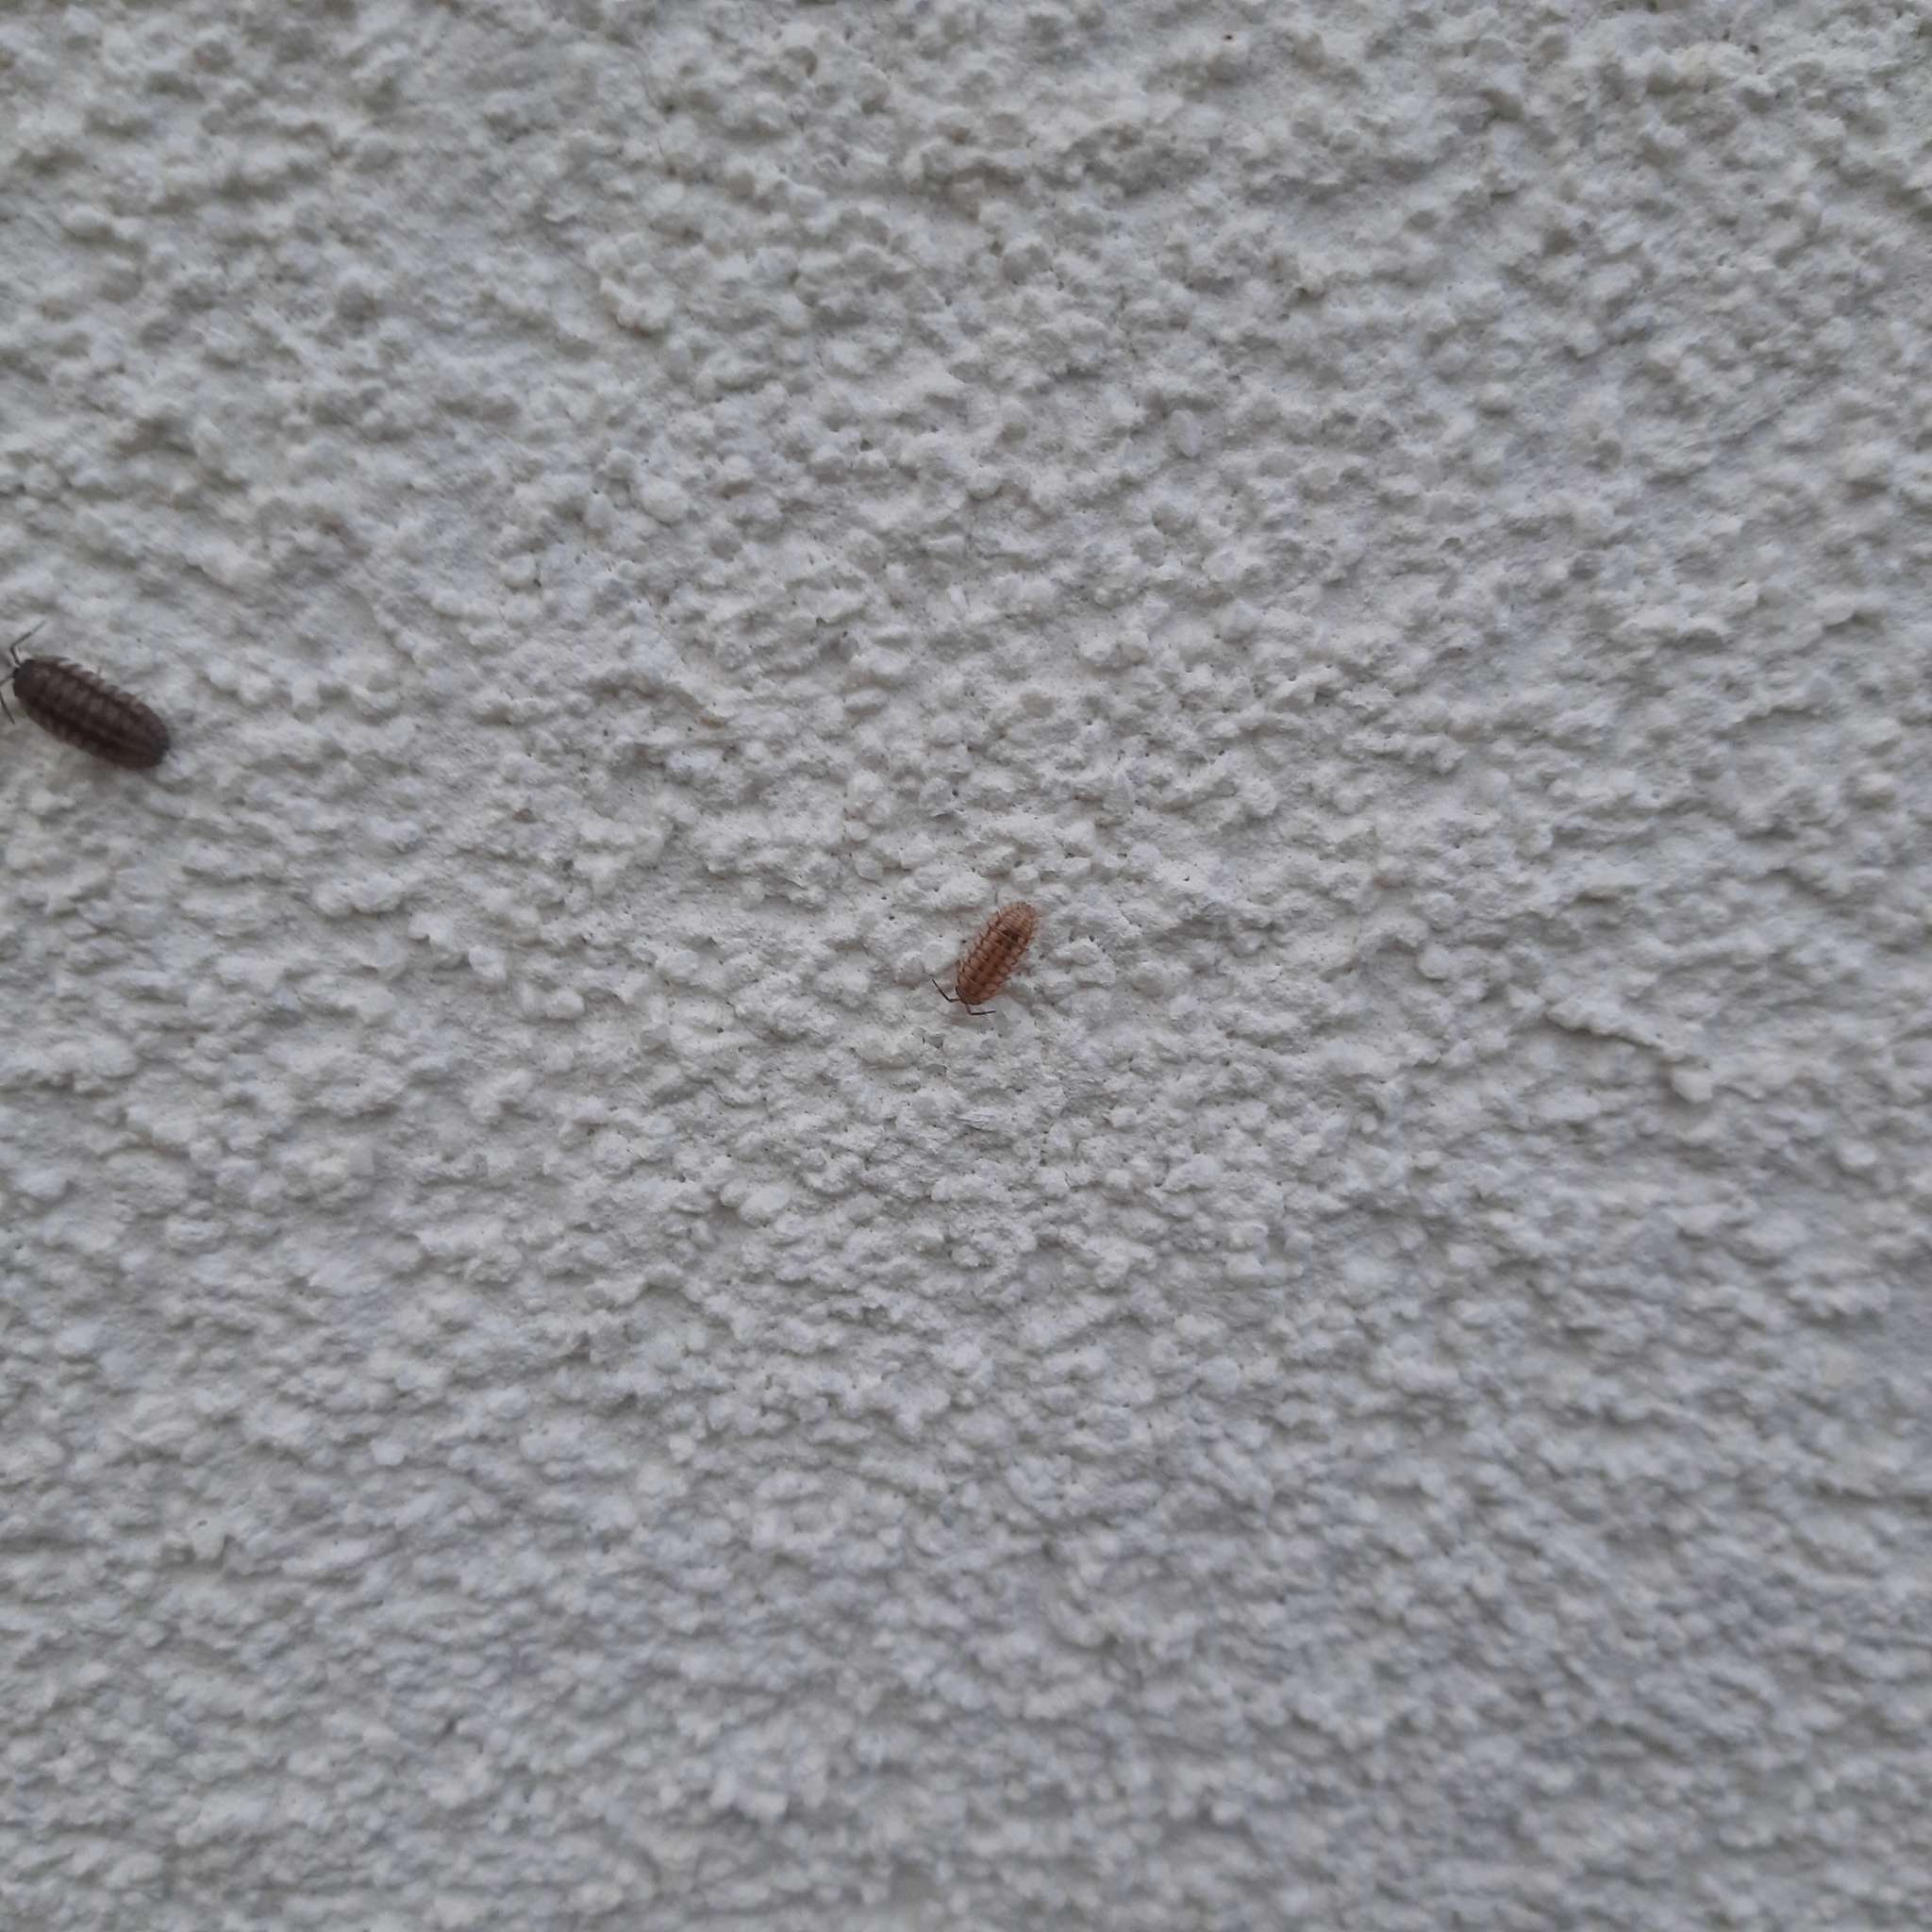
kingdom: Animalia
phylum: Arthropoda
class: Malacostraca
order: Isopoda
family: Armadillidiidae
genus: Armadillidium
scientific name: Armadillidium nasatum
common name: Isopod
